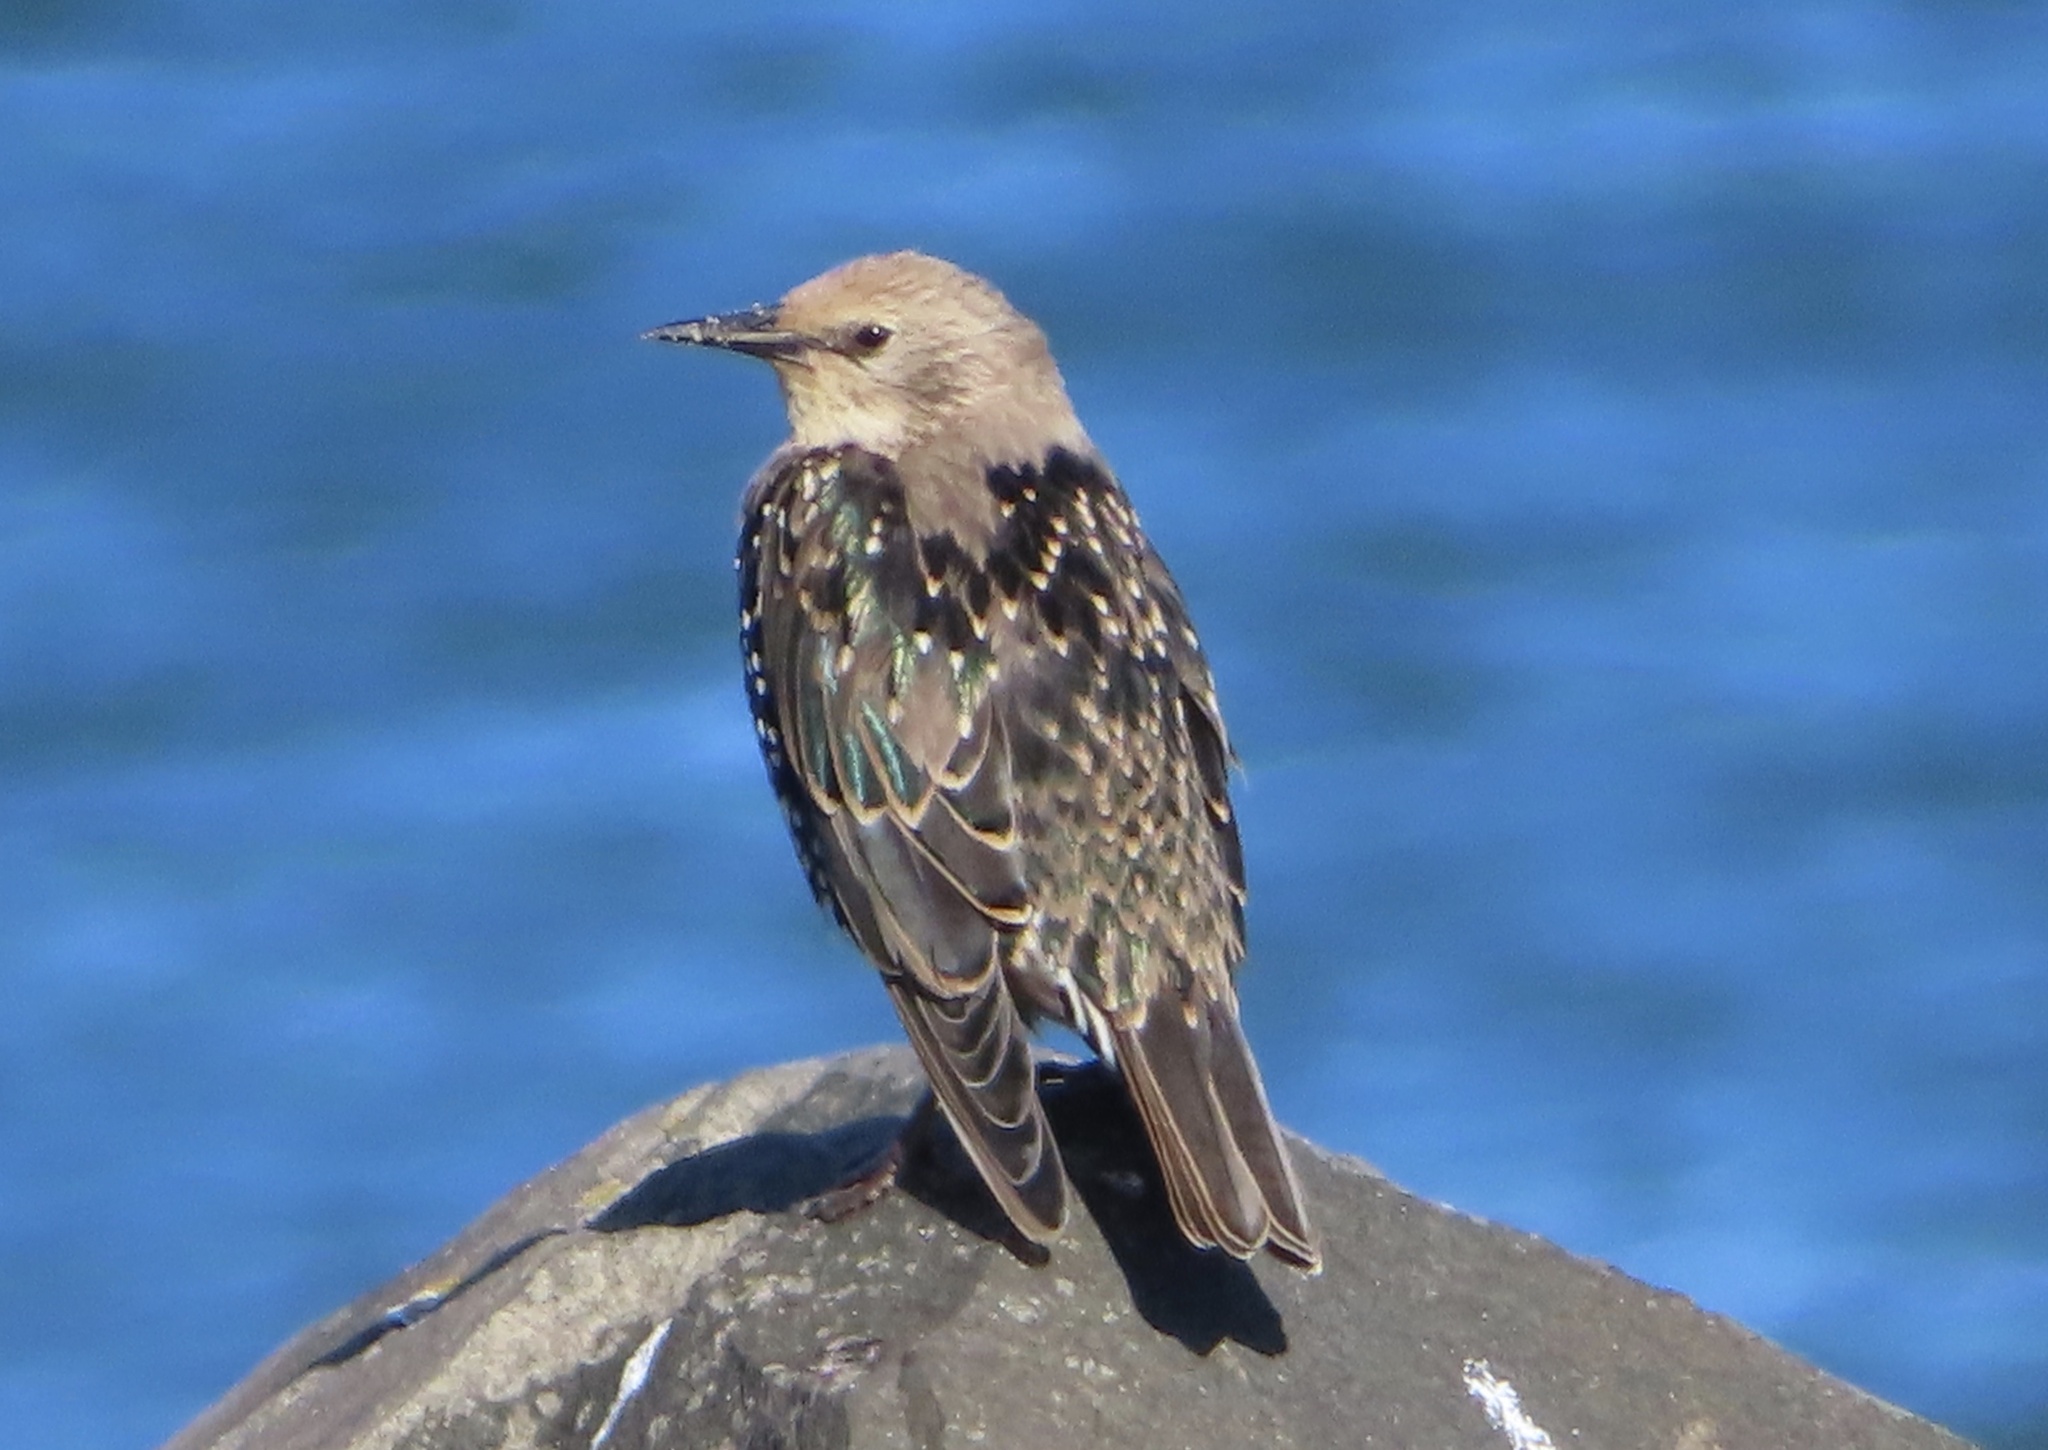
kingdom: Animalia
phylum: Chordata
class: Aves
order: Passeriformes
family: Sturnidae
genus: Sturnus
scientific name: Sturnus vulgaris
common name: Common starling
